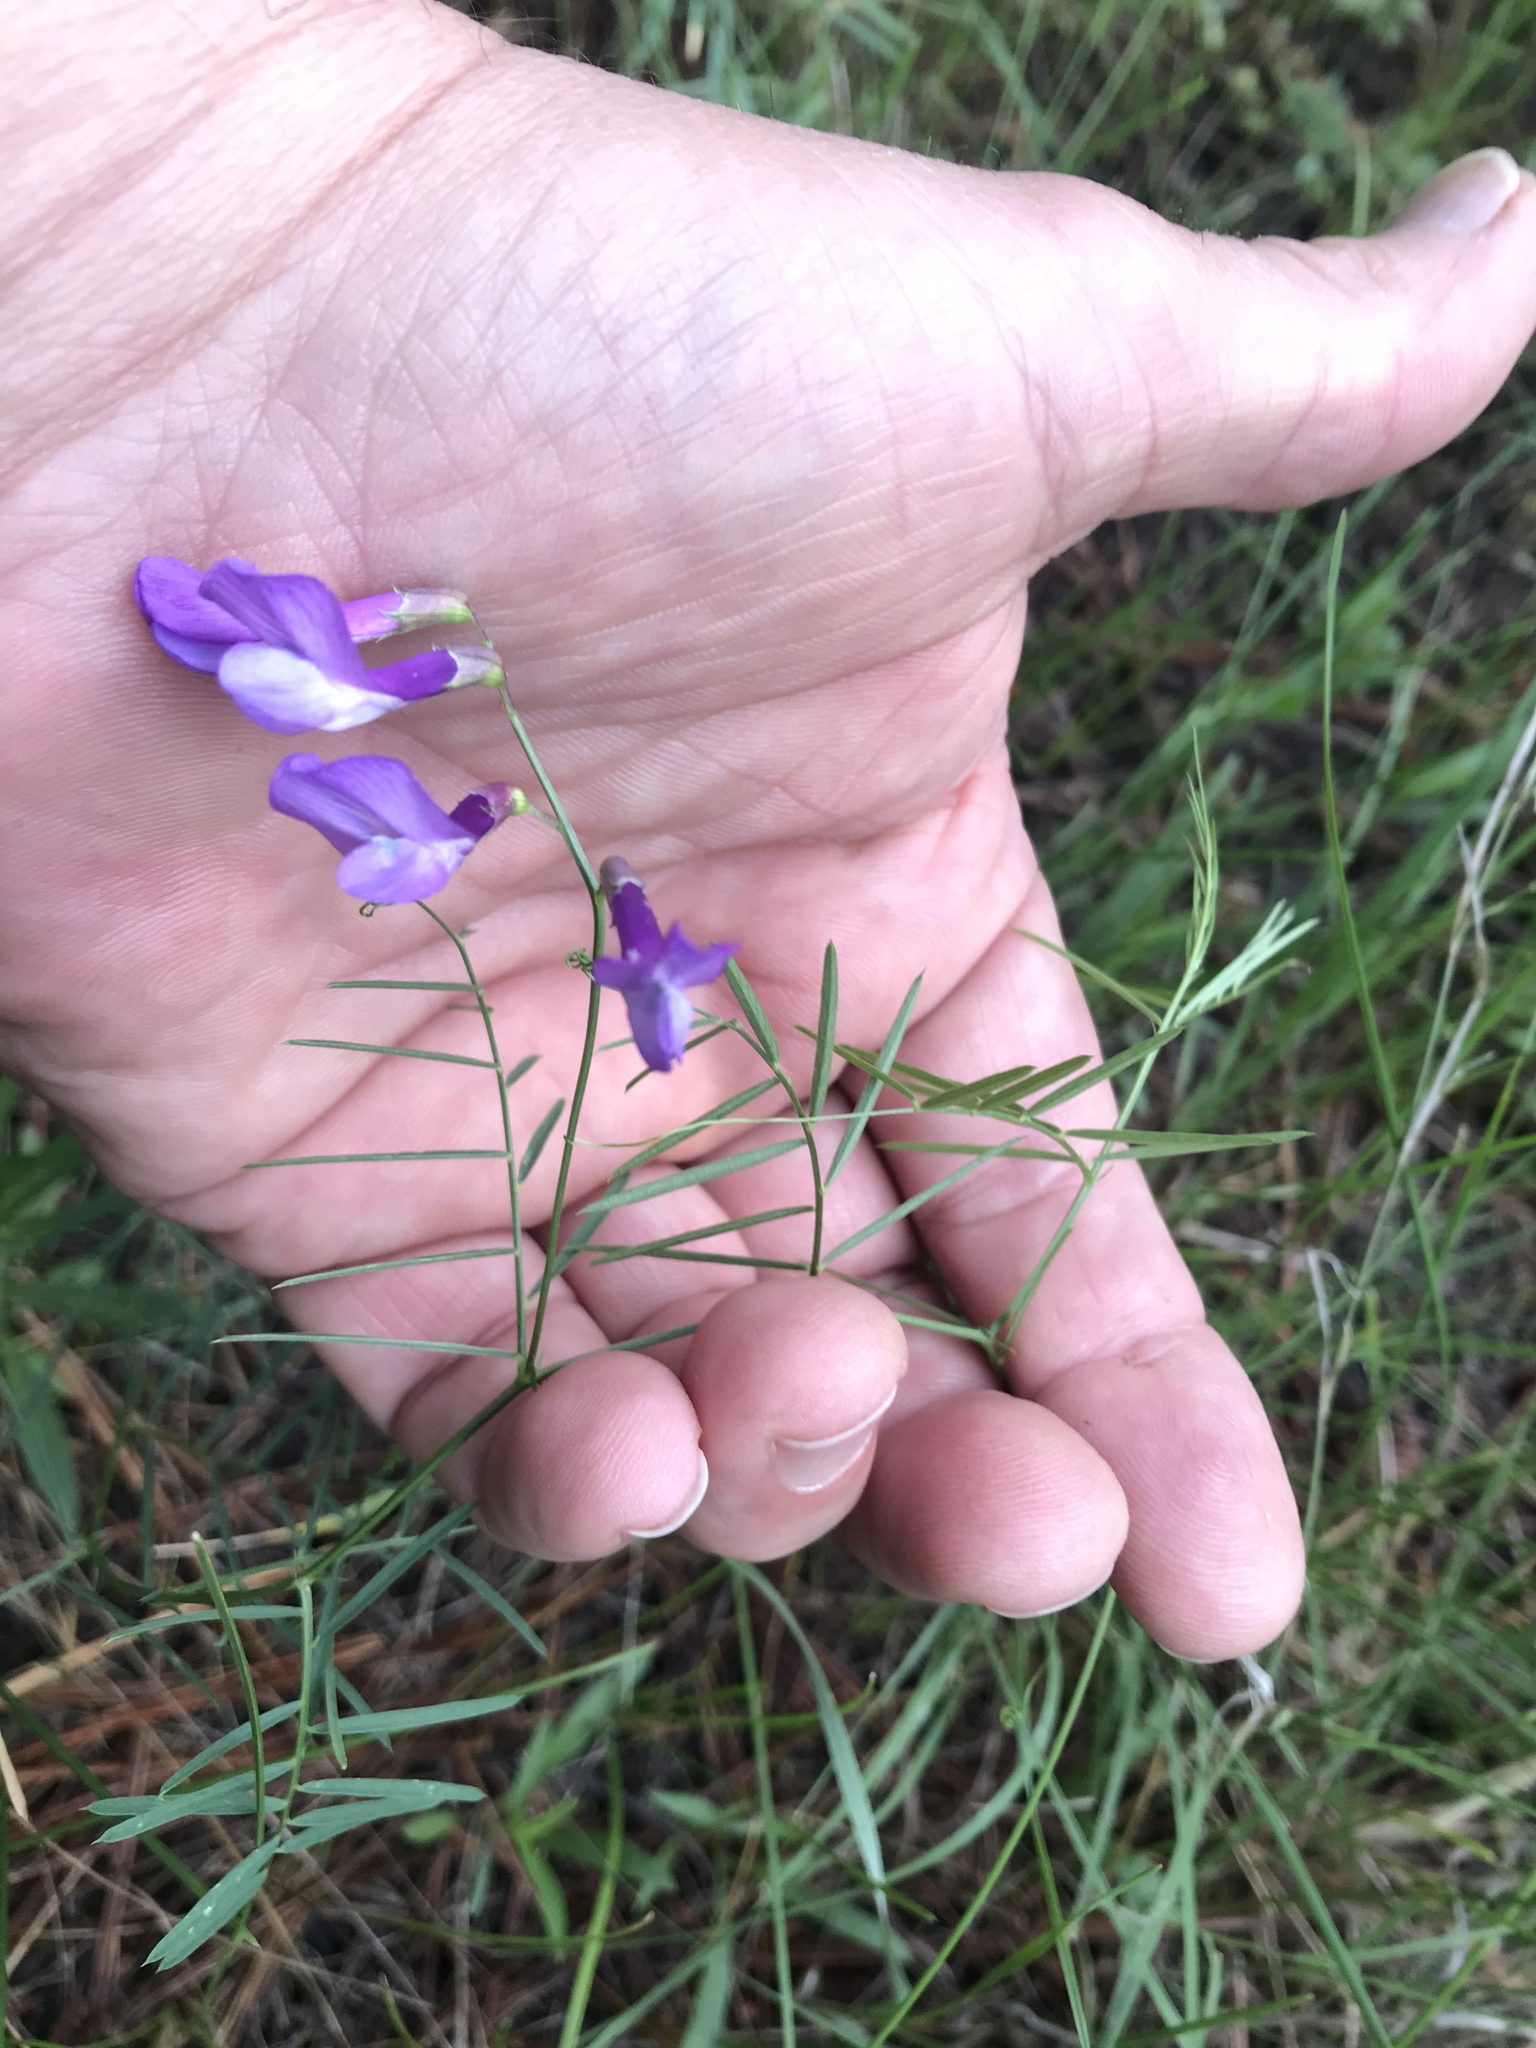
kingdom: Plantae
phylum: Tracheophyta
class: Magnoliopsida
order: Fabales
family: Fabaceae
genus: Vicia
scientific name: Vicia americana
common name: American vetch
